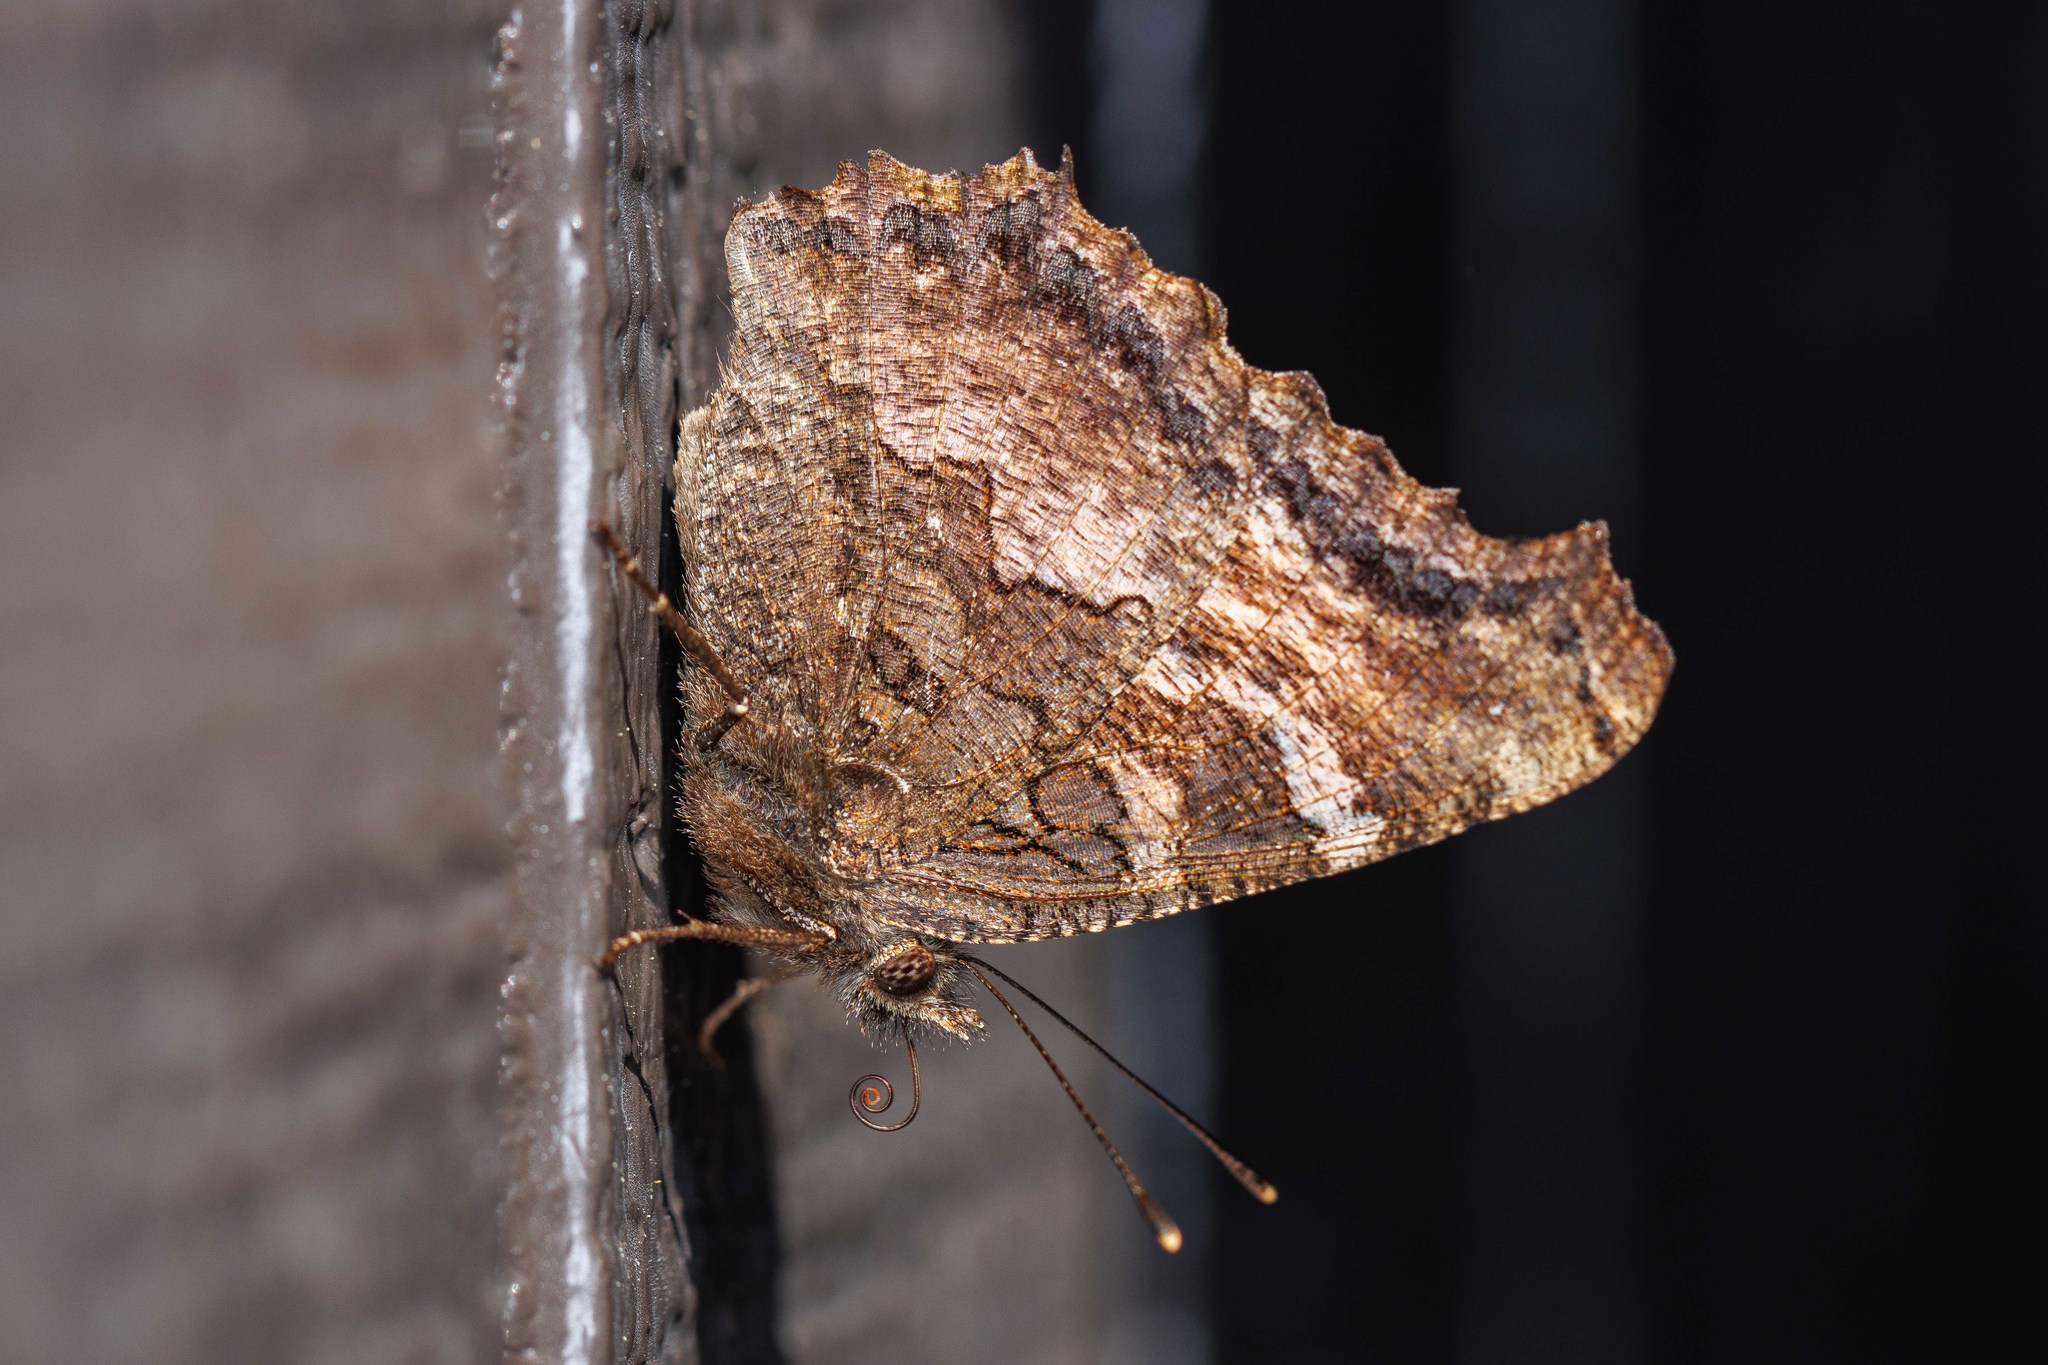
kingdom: Animalia
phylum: Arthropoda
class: Insecta
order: Lepidoptera
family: Nymphalidae
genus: Nymphalis
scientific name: Nymphalis californica
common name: California tortoiseshell
